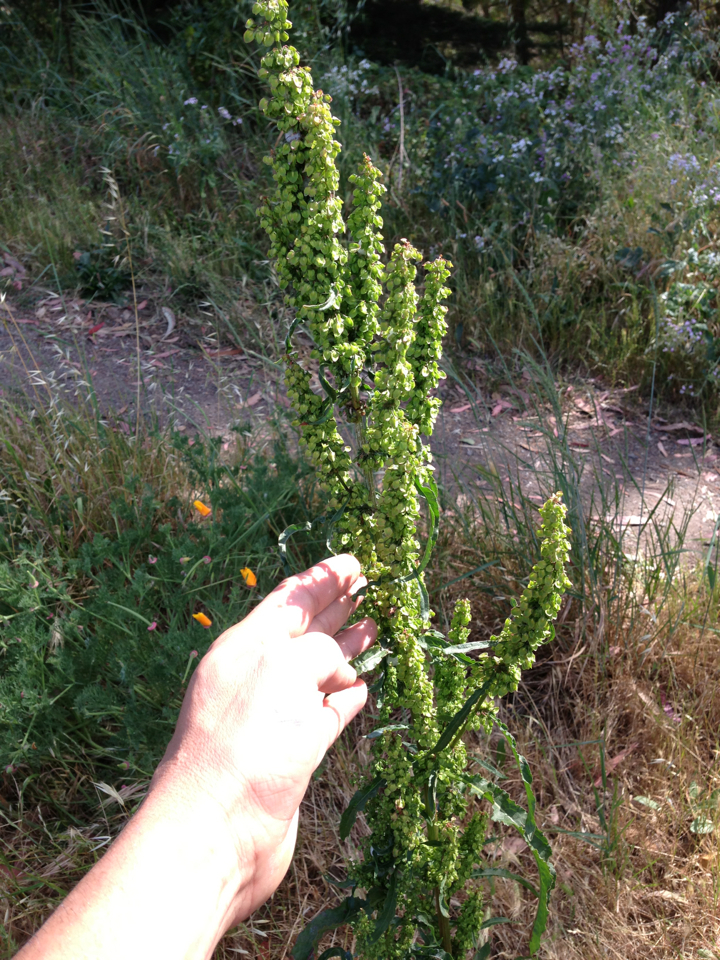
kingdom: Plantae
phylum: Tracheophyta
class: Magnoliopsida
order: Caryophyllales
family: Polygonaceae
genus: Rumex
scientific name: Rumex crispus
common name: Curled dock
